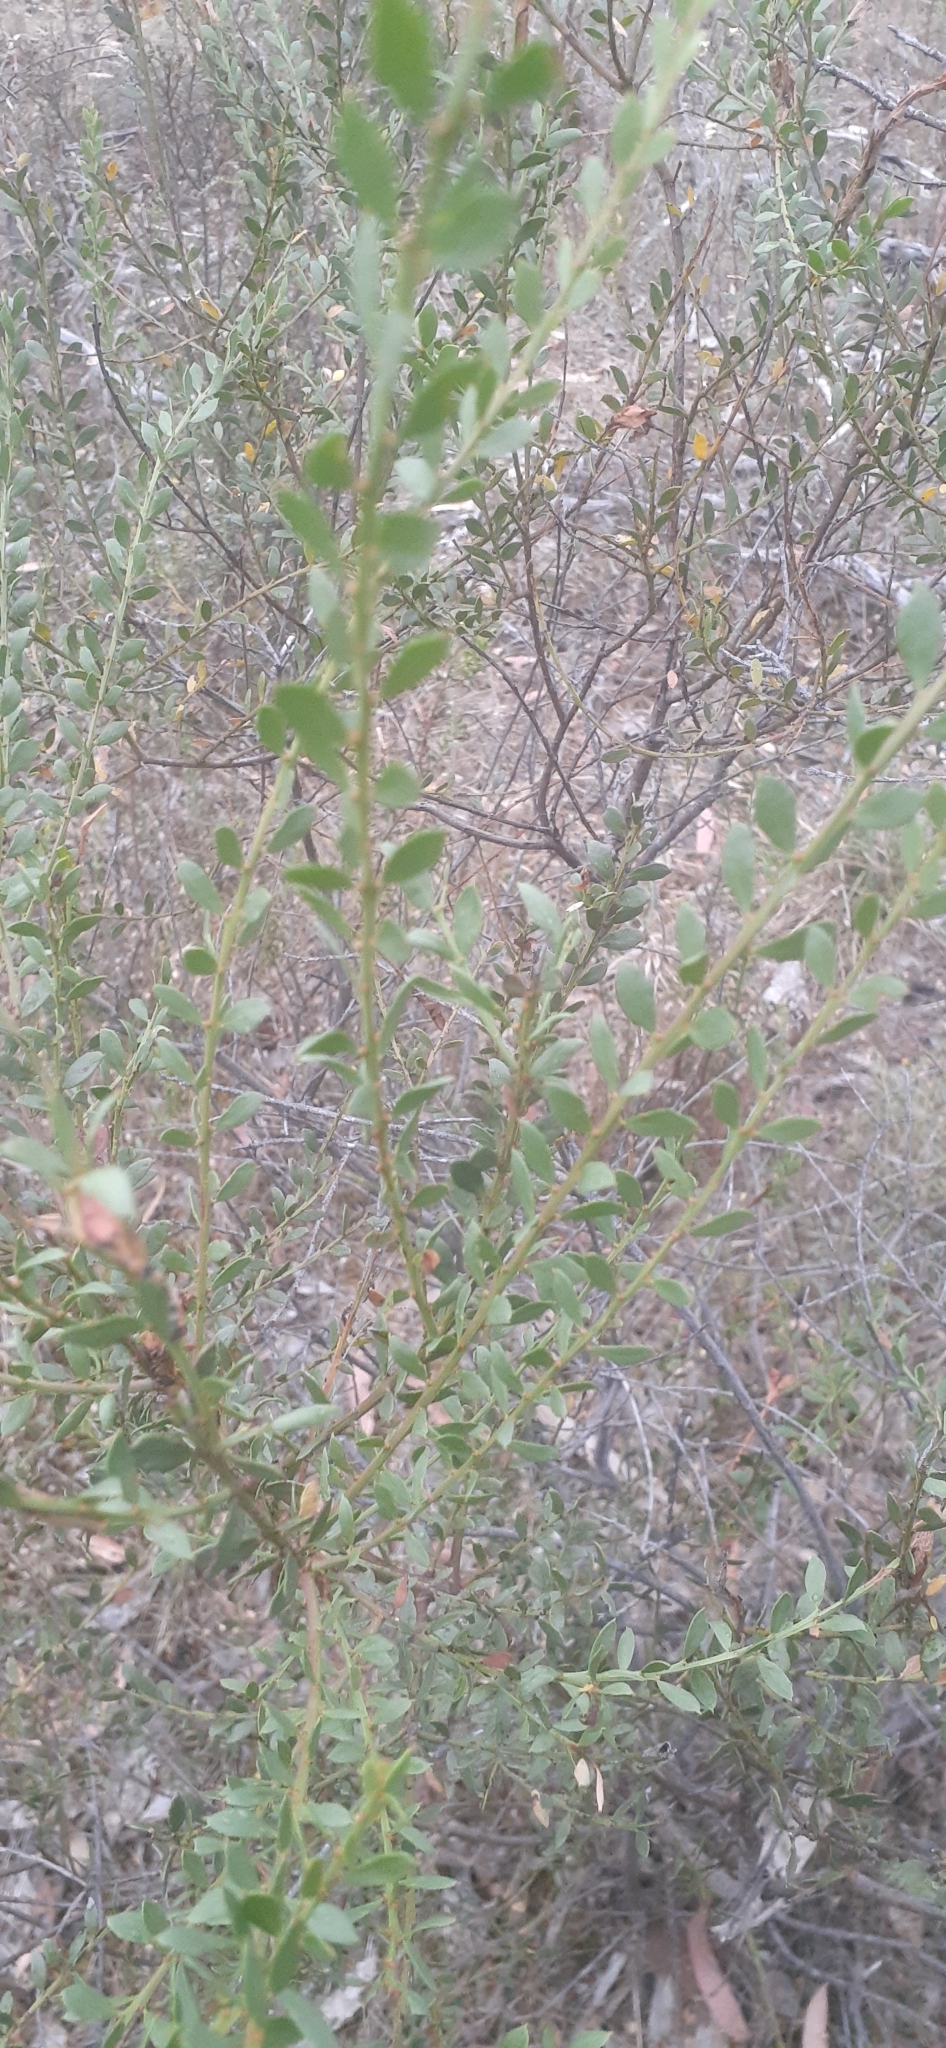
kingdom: Plantae
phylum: Tracheophyta
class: Magnoliopsida
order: Fabales
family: Fabaceae
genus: Acacia
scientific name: Acacia acinacea
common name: Gold-dust acacia
